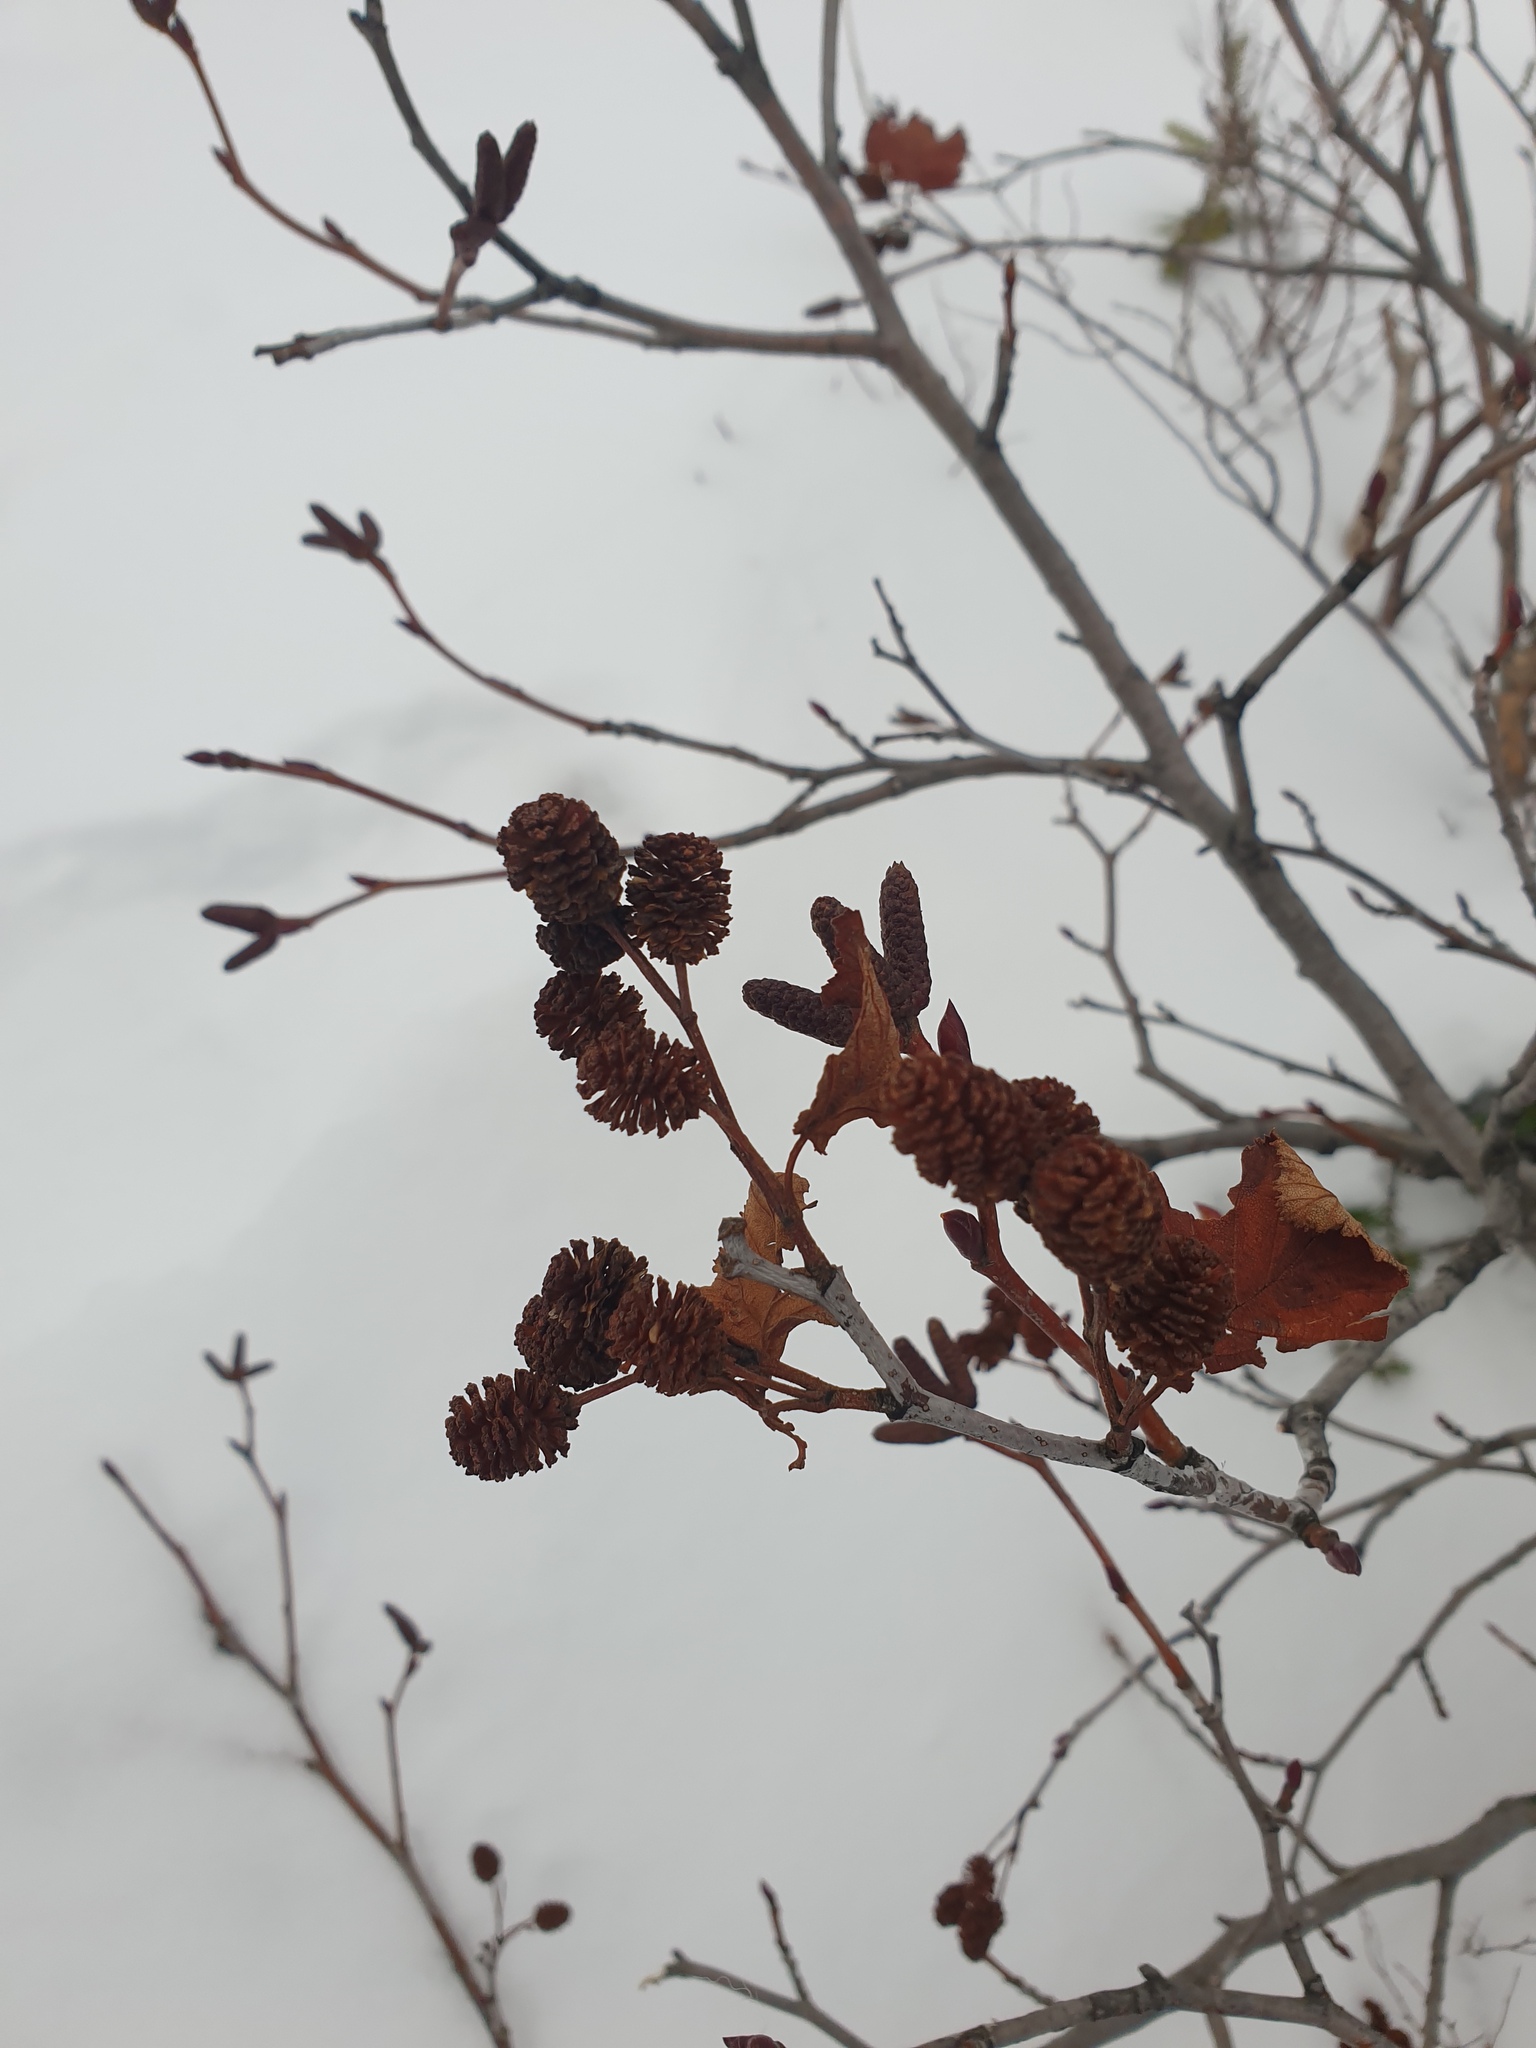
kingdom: Plantae
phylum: Tracheophyta
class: Magnoliopsida
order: Fagales
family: Betulaceae
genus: Alnus
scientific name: Alnus alnobetula
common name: Green alder
